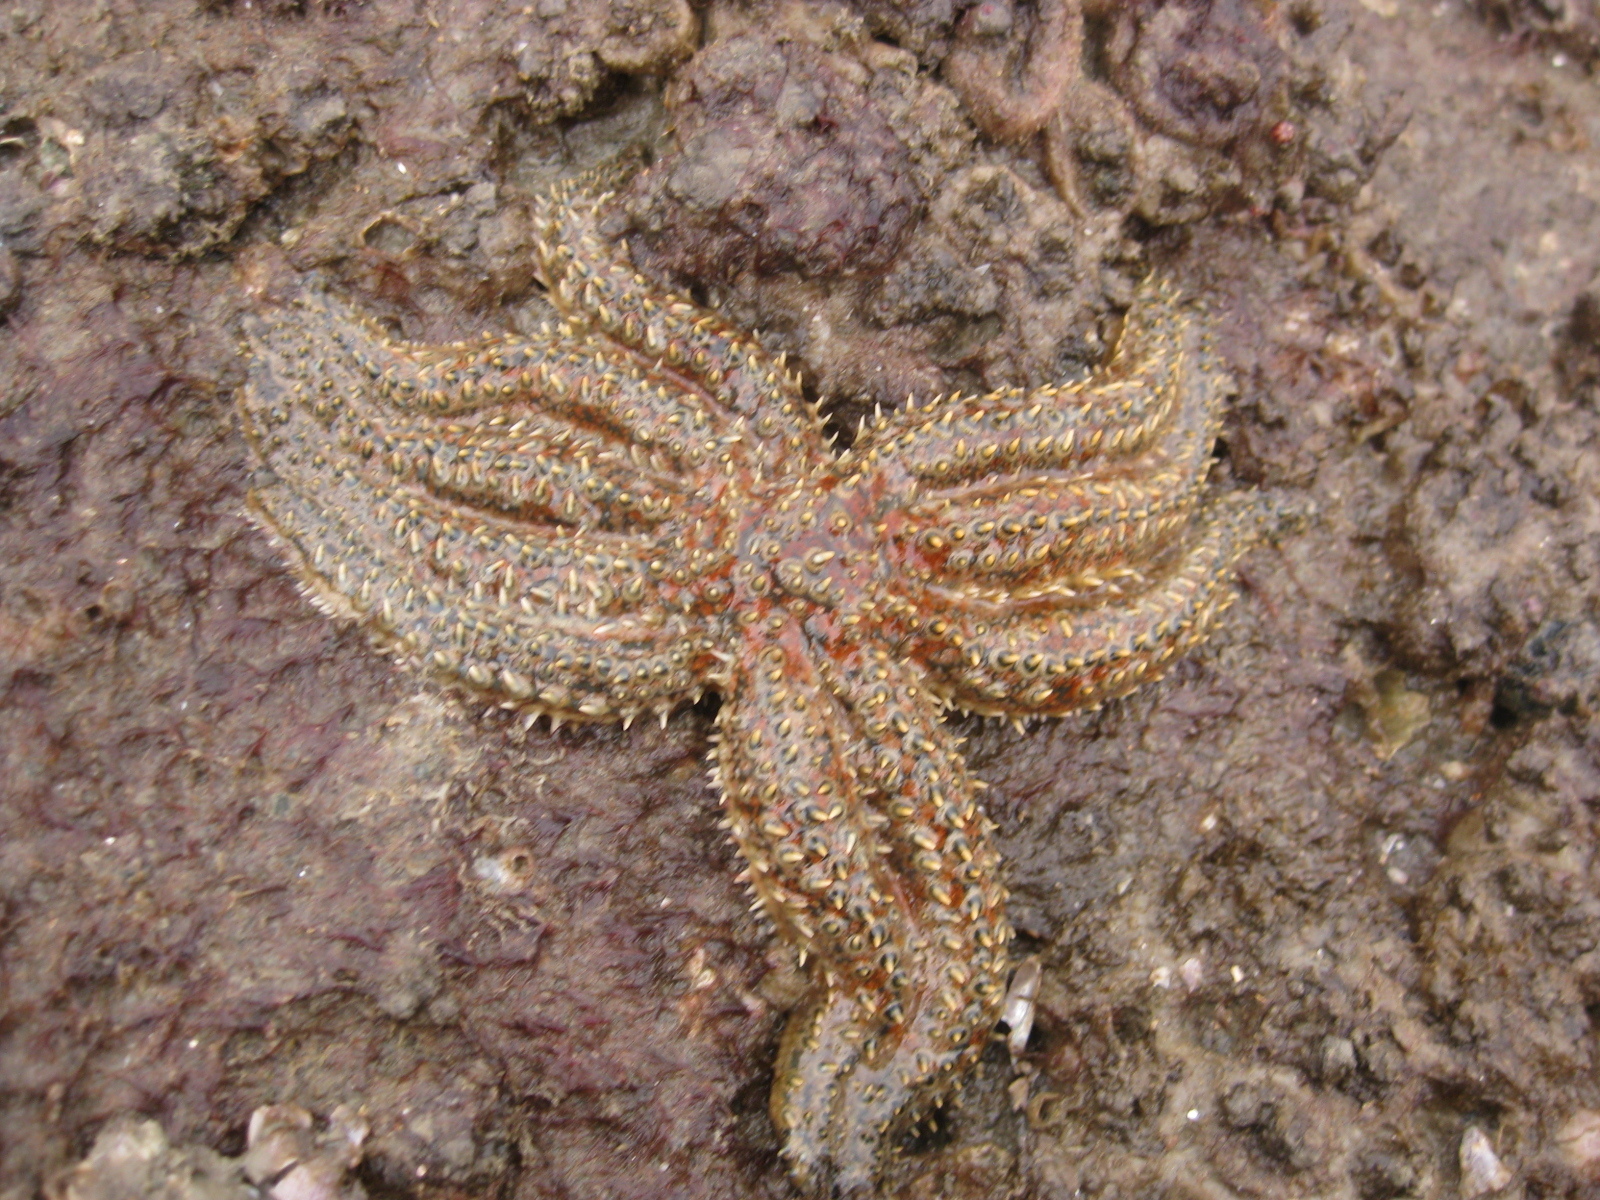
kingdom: Animalia
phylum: Echinodermata
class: Asteroidea
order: Forcipulatida
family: Asteriidae
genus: Coscinasterias
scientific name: Coscinasterias muricata
